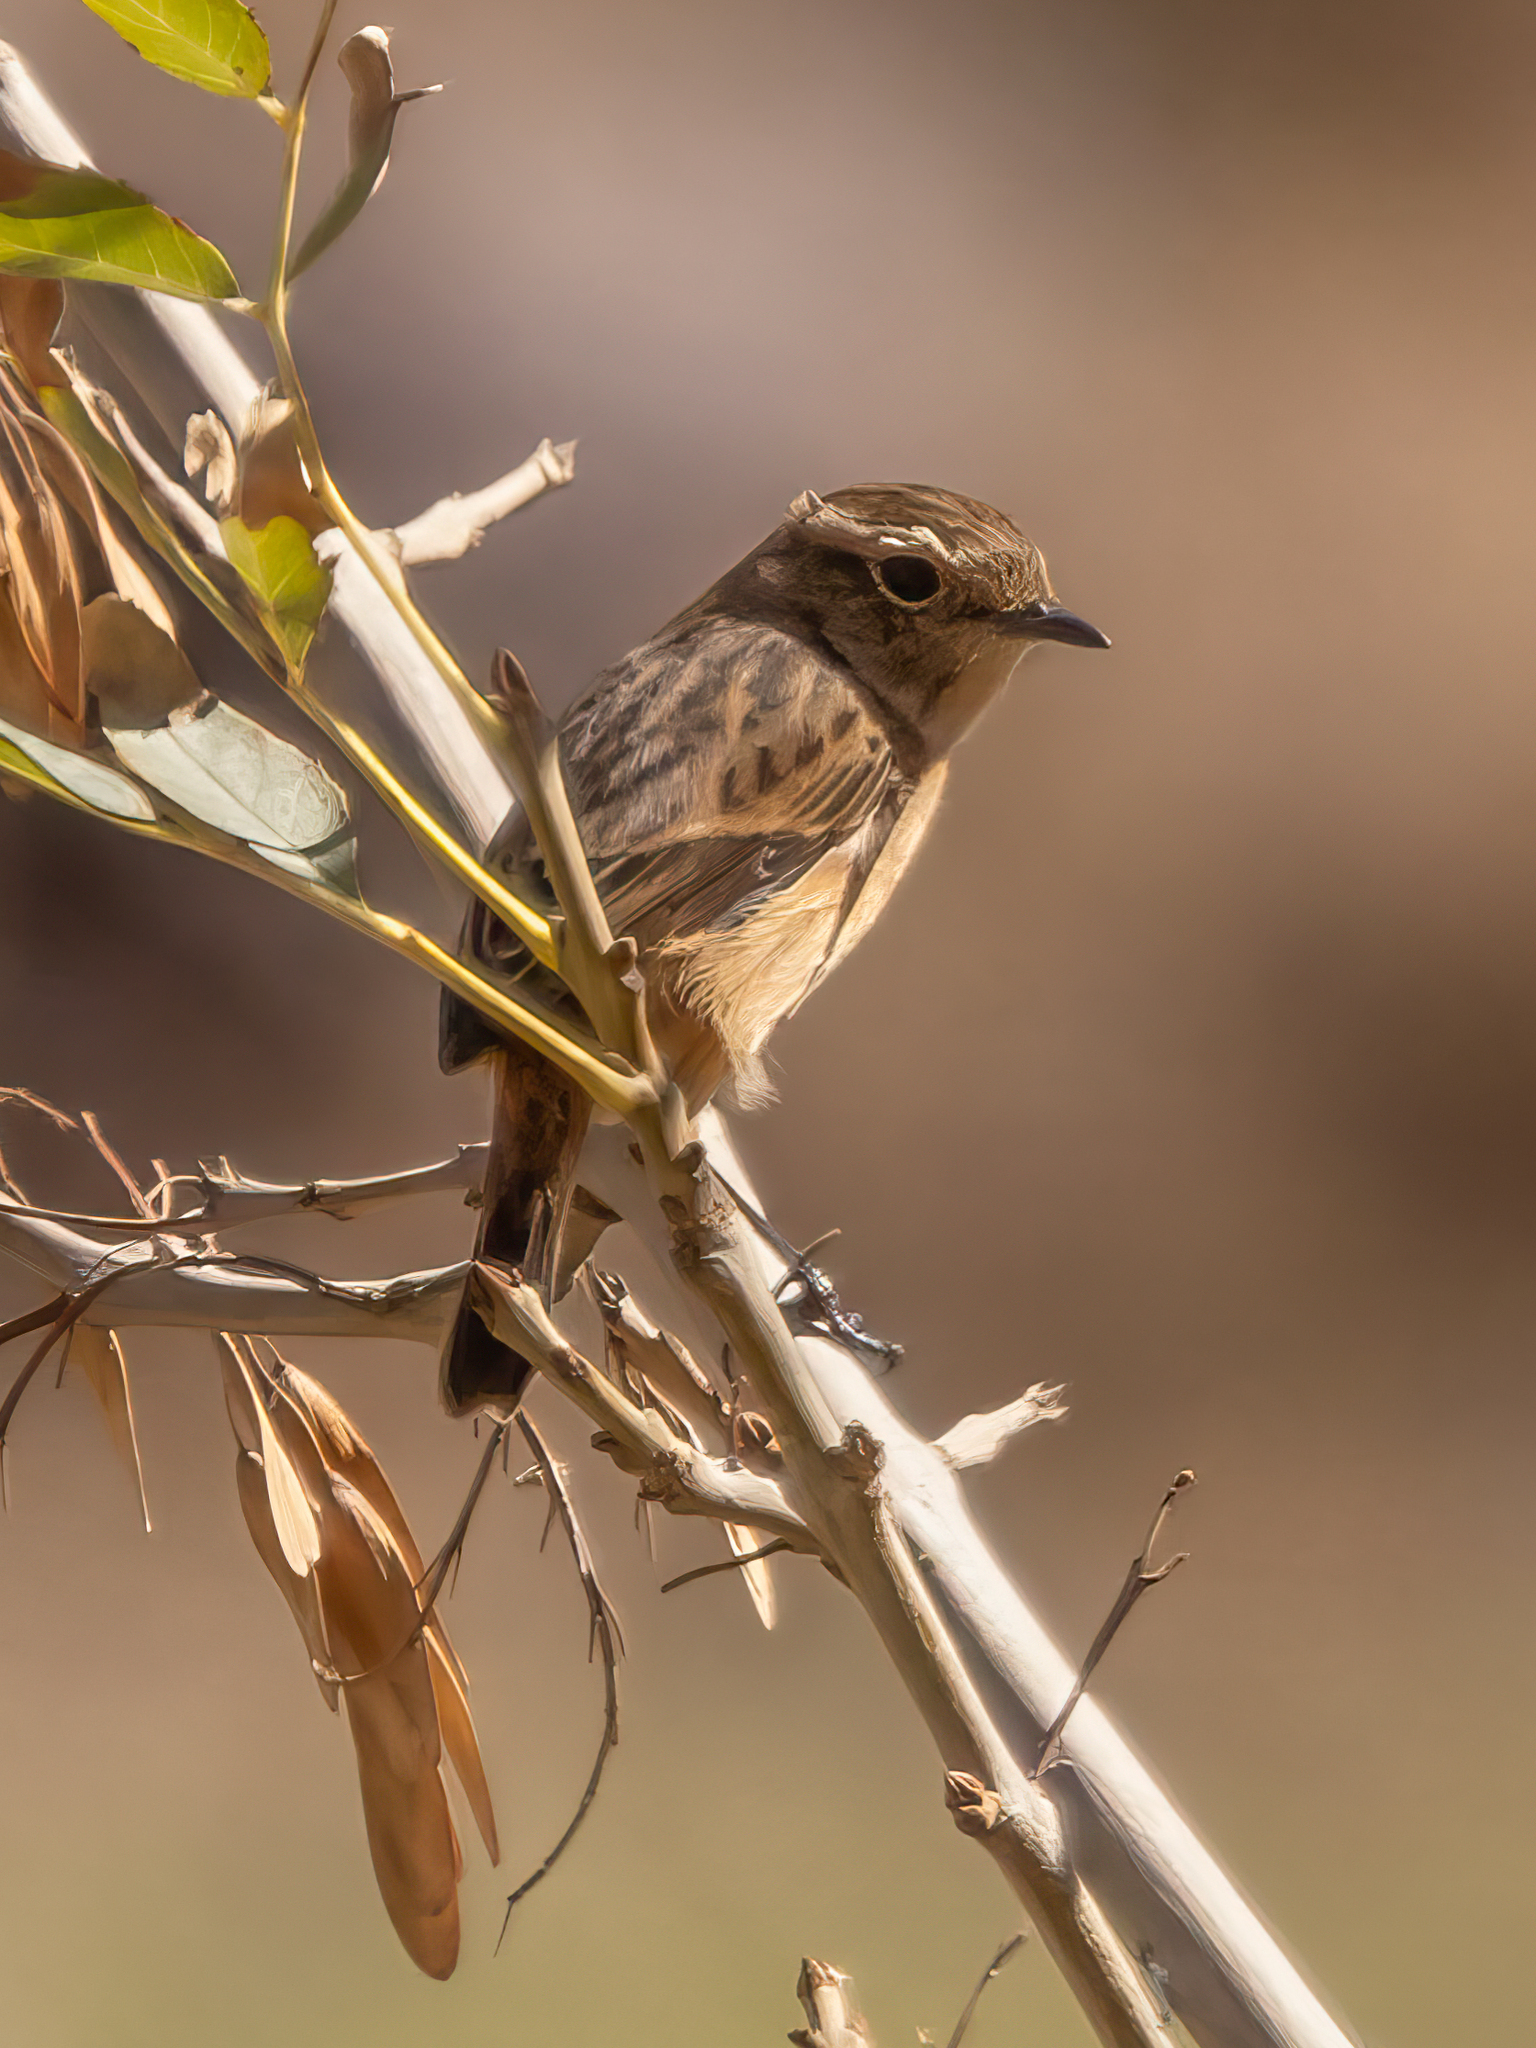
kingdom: Animalia
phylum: Chordata
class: Aves
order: Passeriformes
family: Muscicapidae
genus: Saxicola
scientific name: Saxicola rubicola
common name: European stonechat
